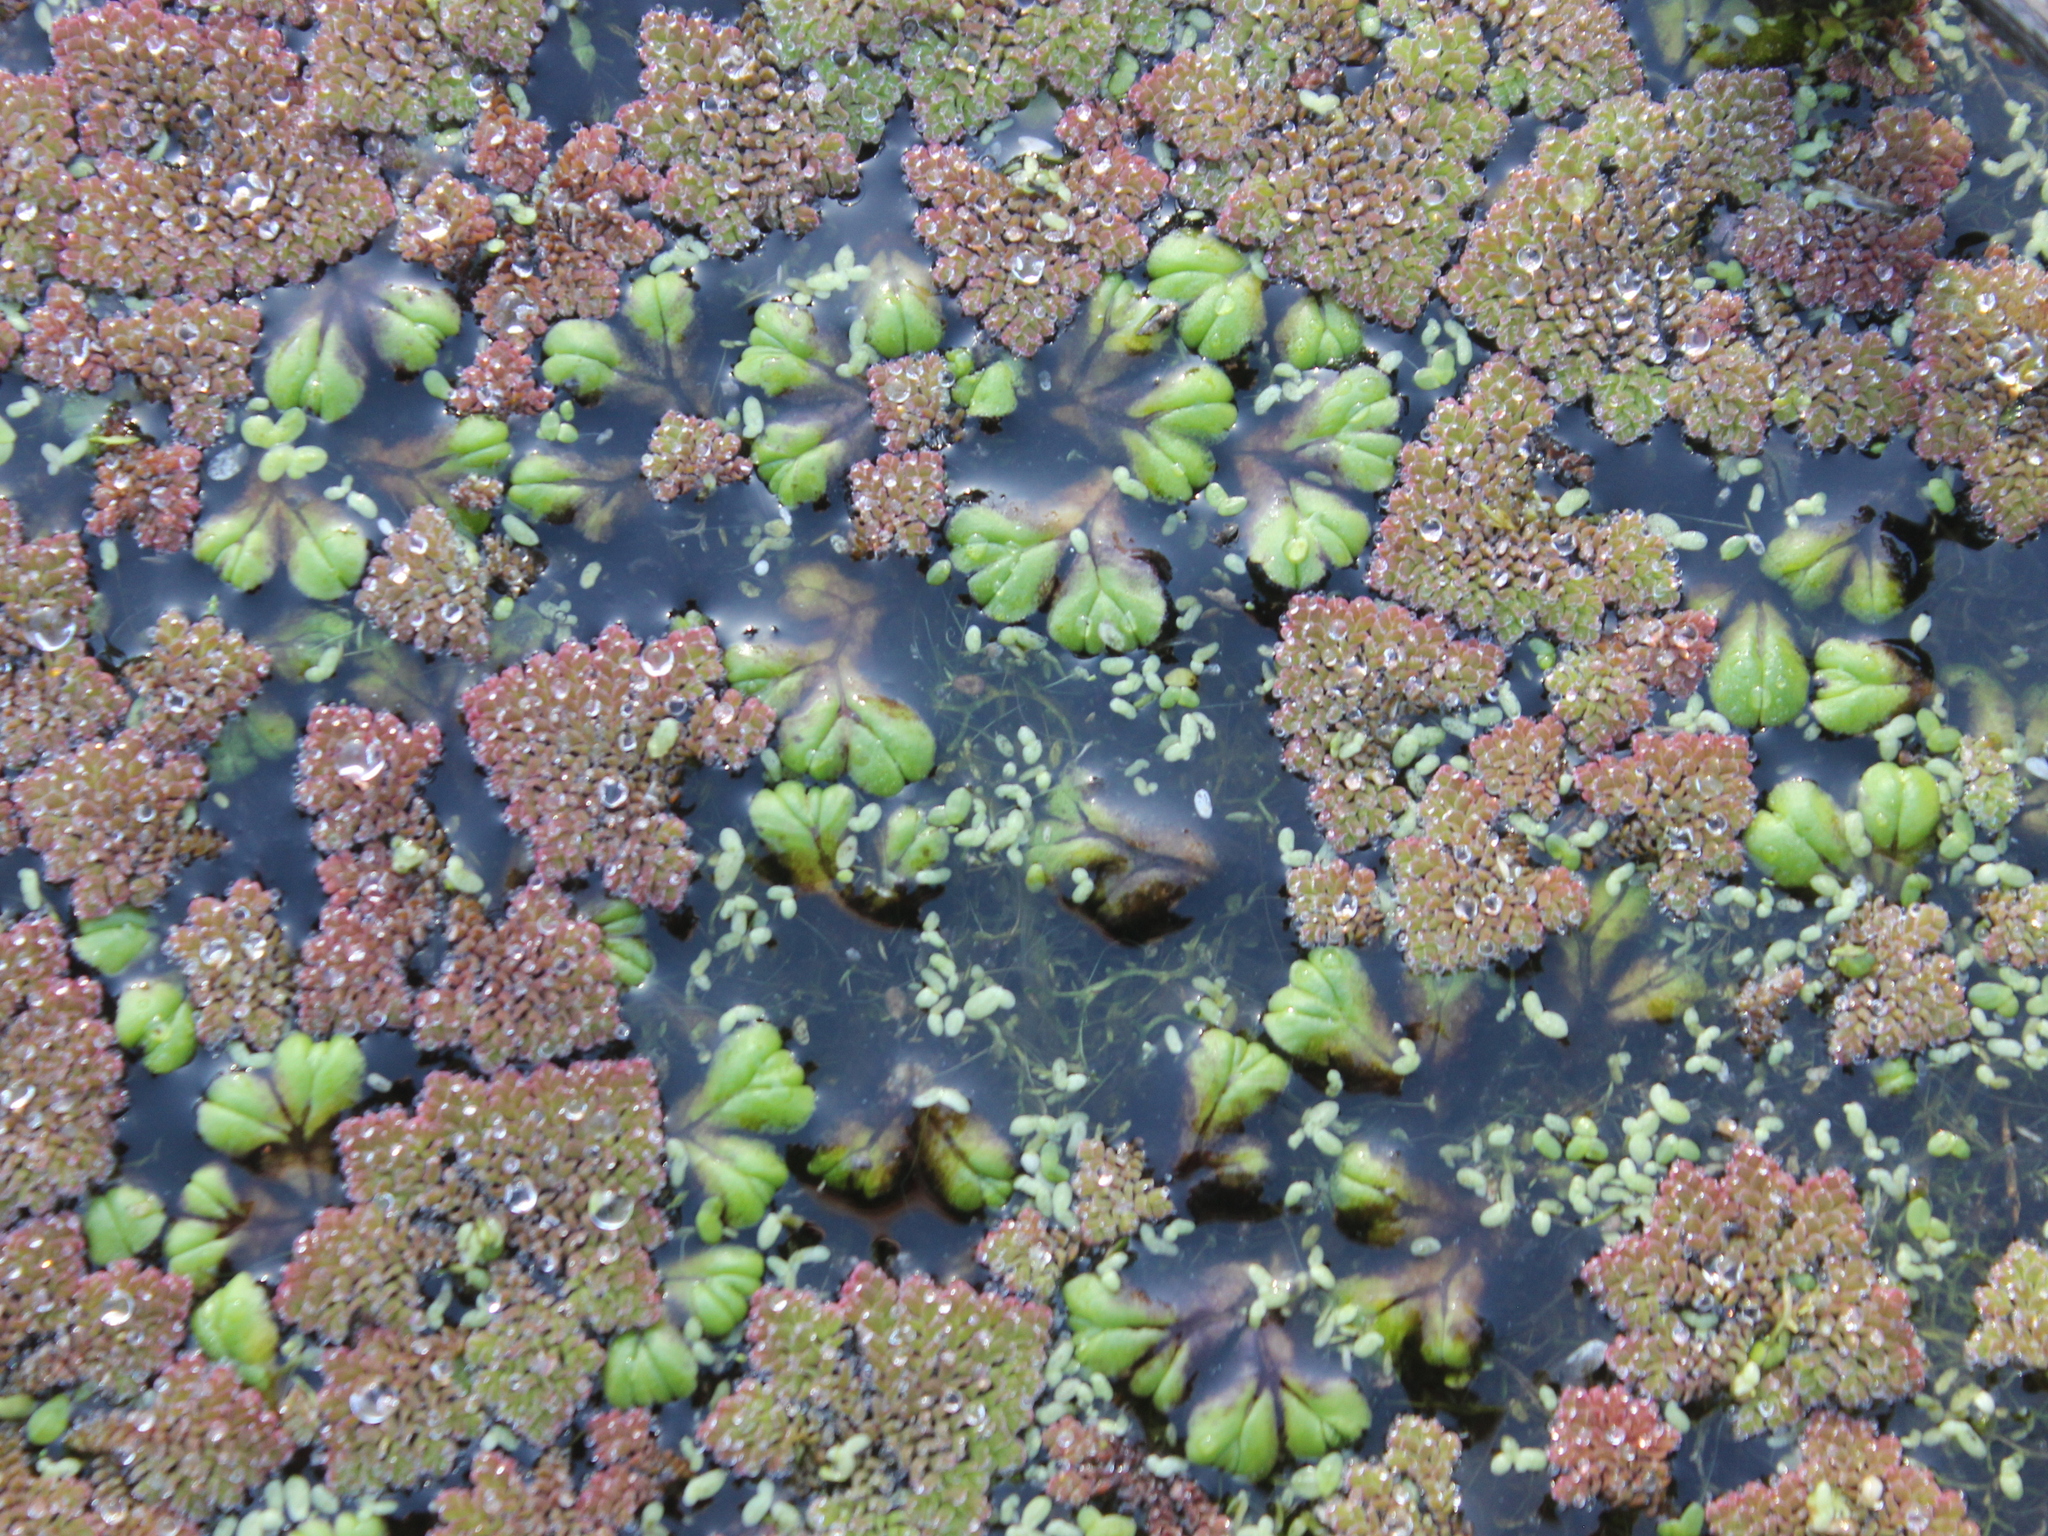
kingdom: Plantae
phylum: Marchantiophyta
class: Marchantiopsida
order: Marchantiales
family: Ricciaceae
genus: Ricciocarpos
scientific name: Ricciocarpos natans
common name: Purple-fringed liverwort
